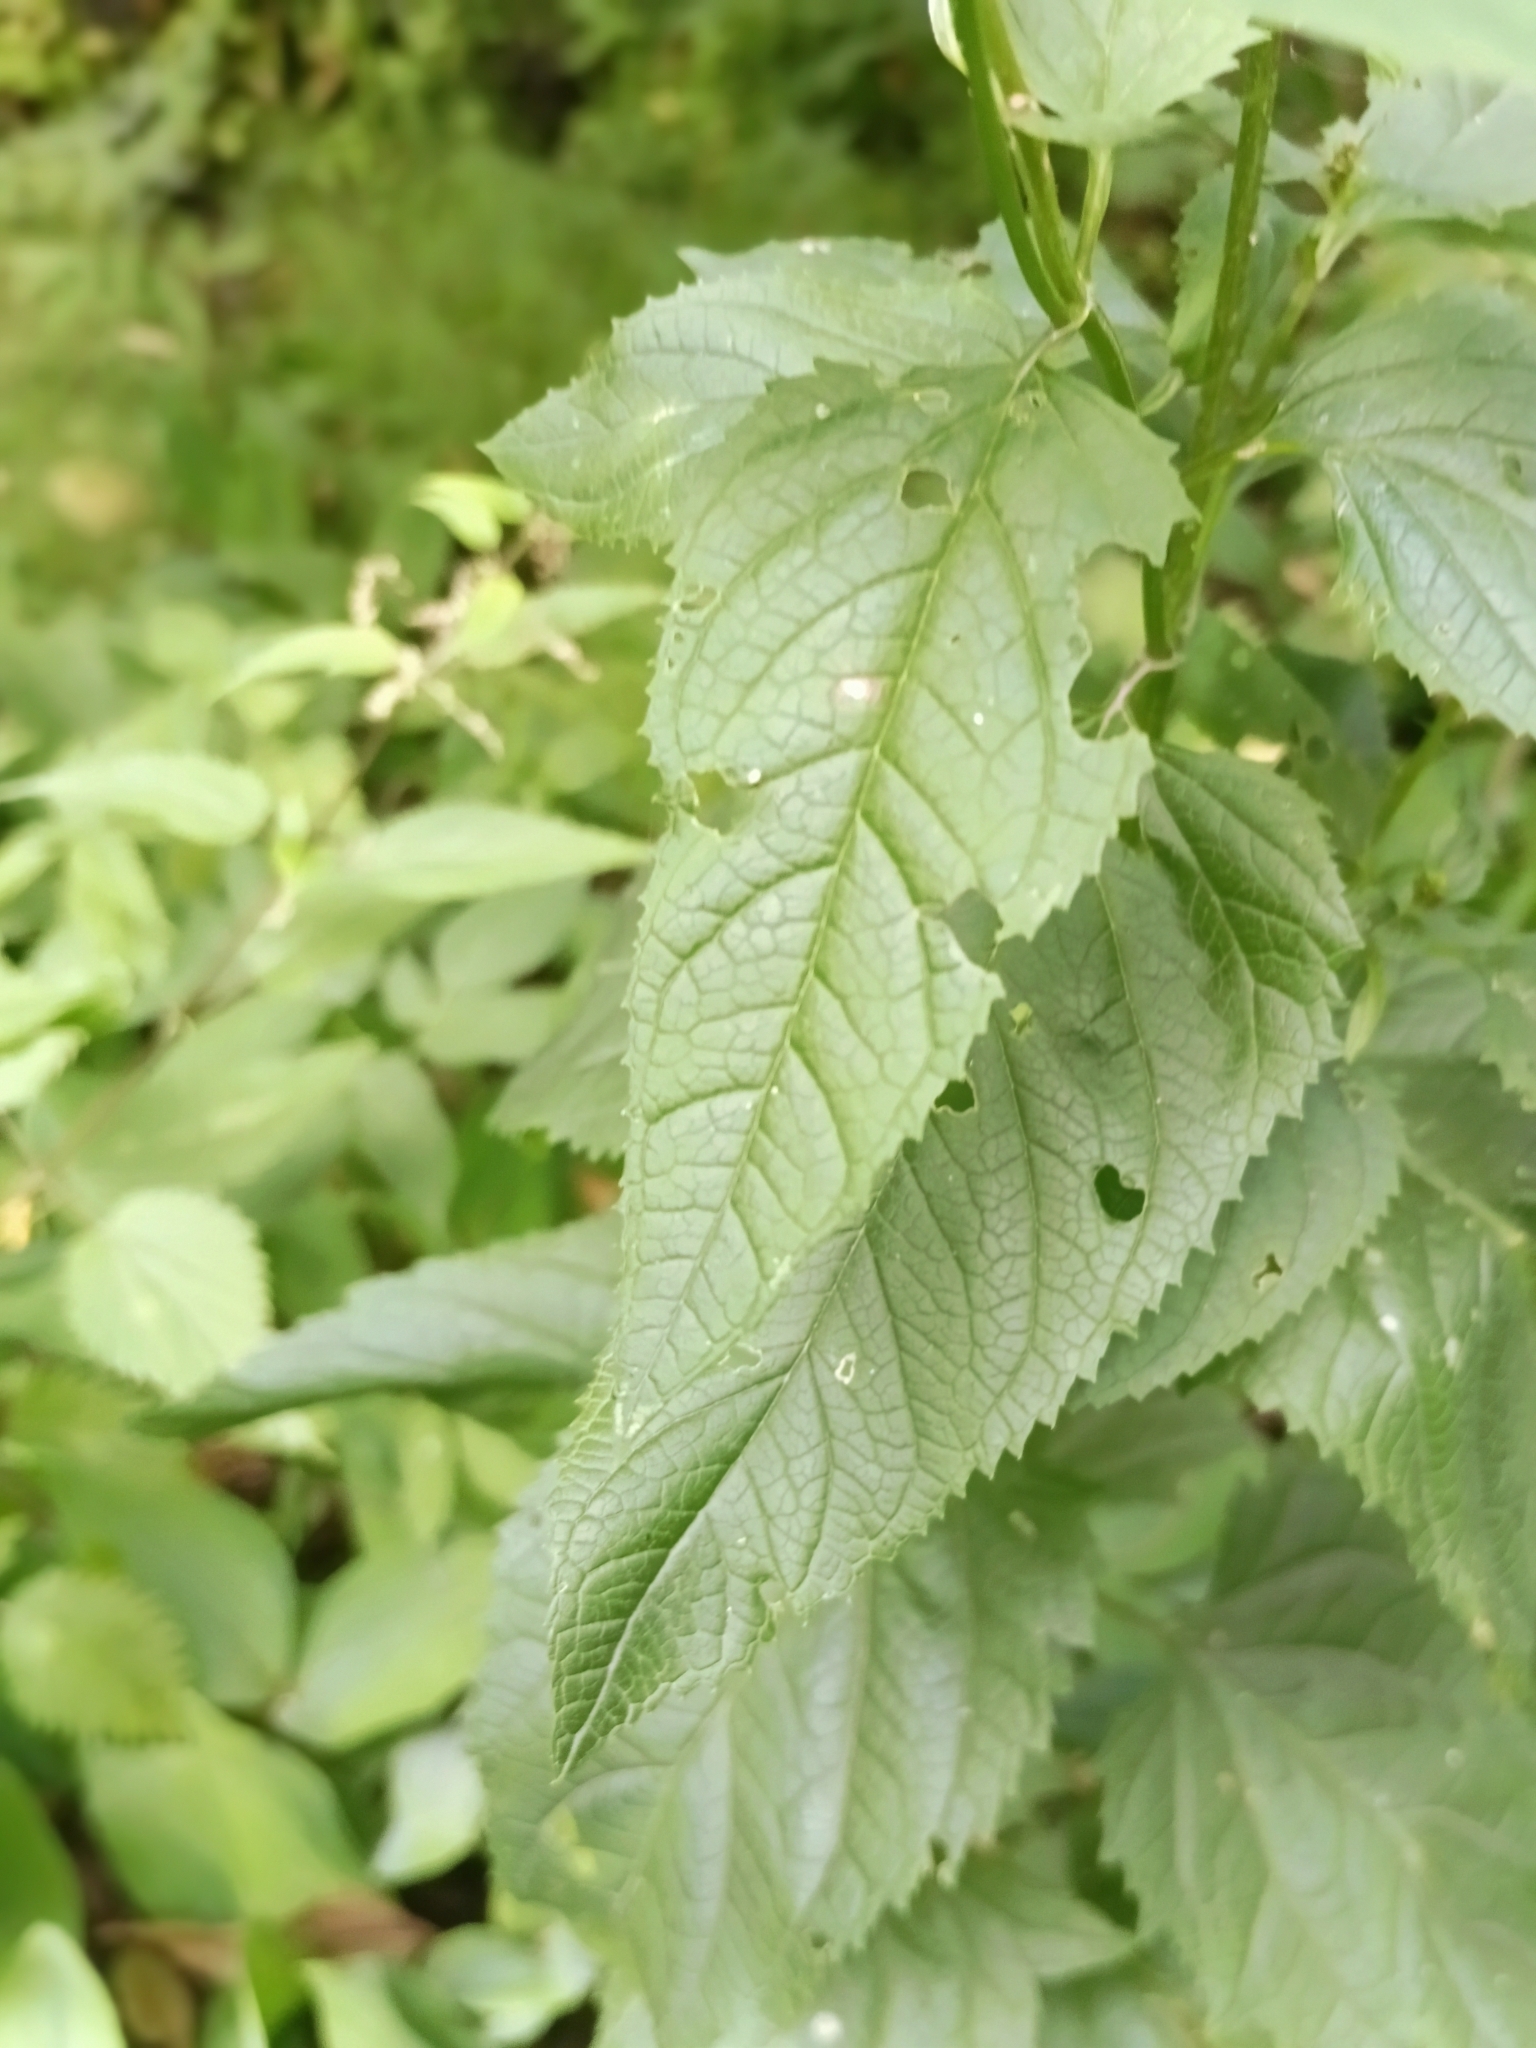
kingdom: Plantae
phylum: Tracheophyta
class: Magnoliopsida
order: Lamiales
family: Scrophulariaceae
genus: Scrophularia
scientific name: Scrophularia nodosa
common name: Common figwort
